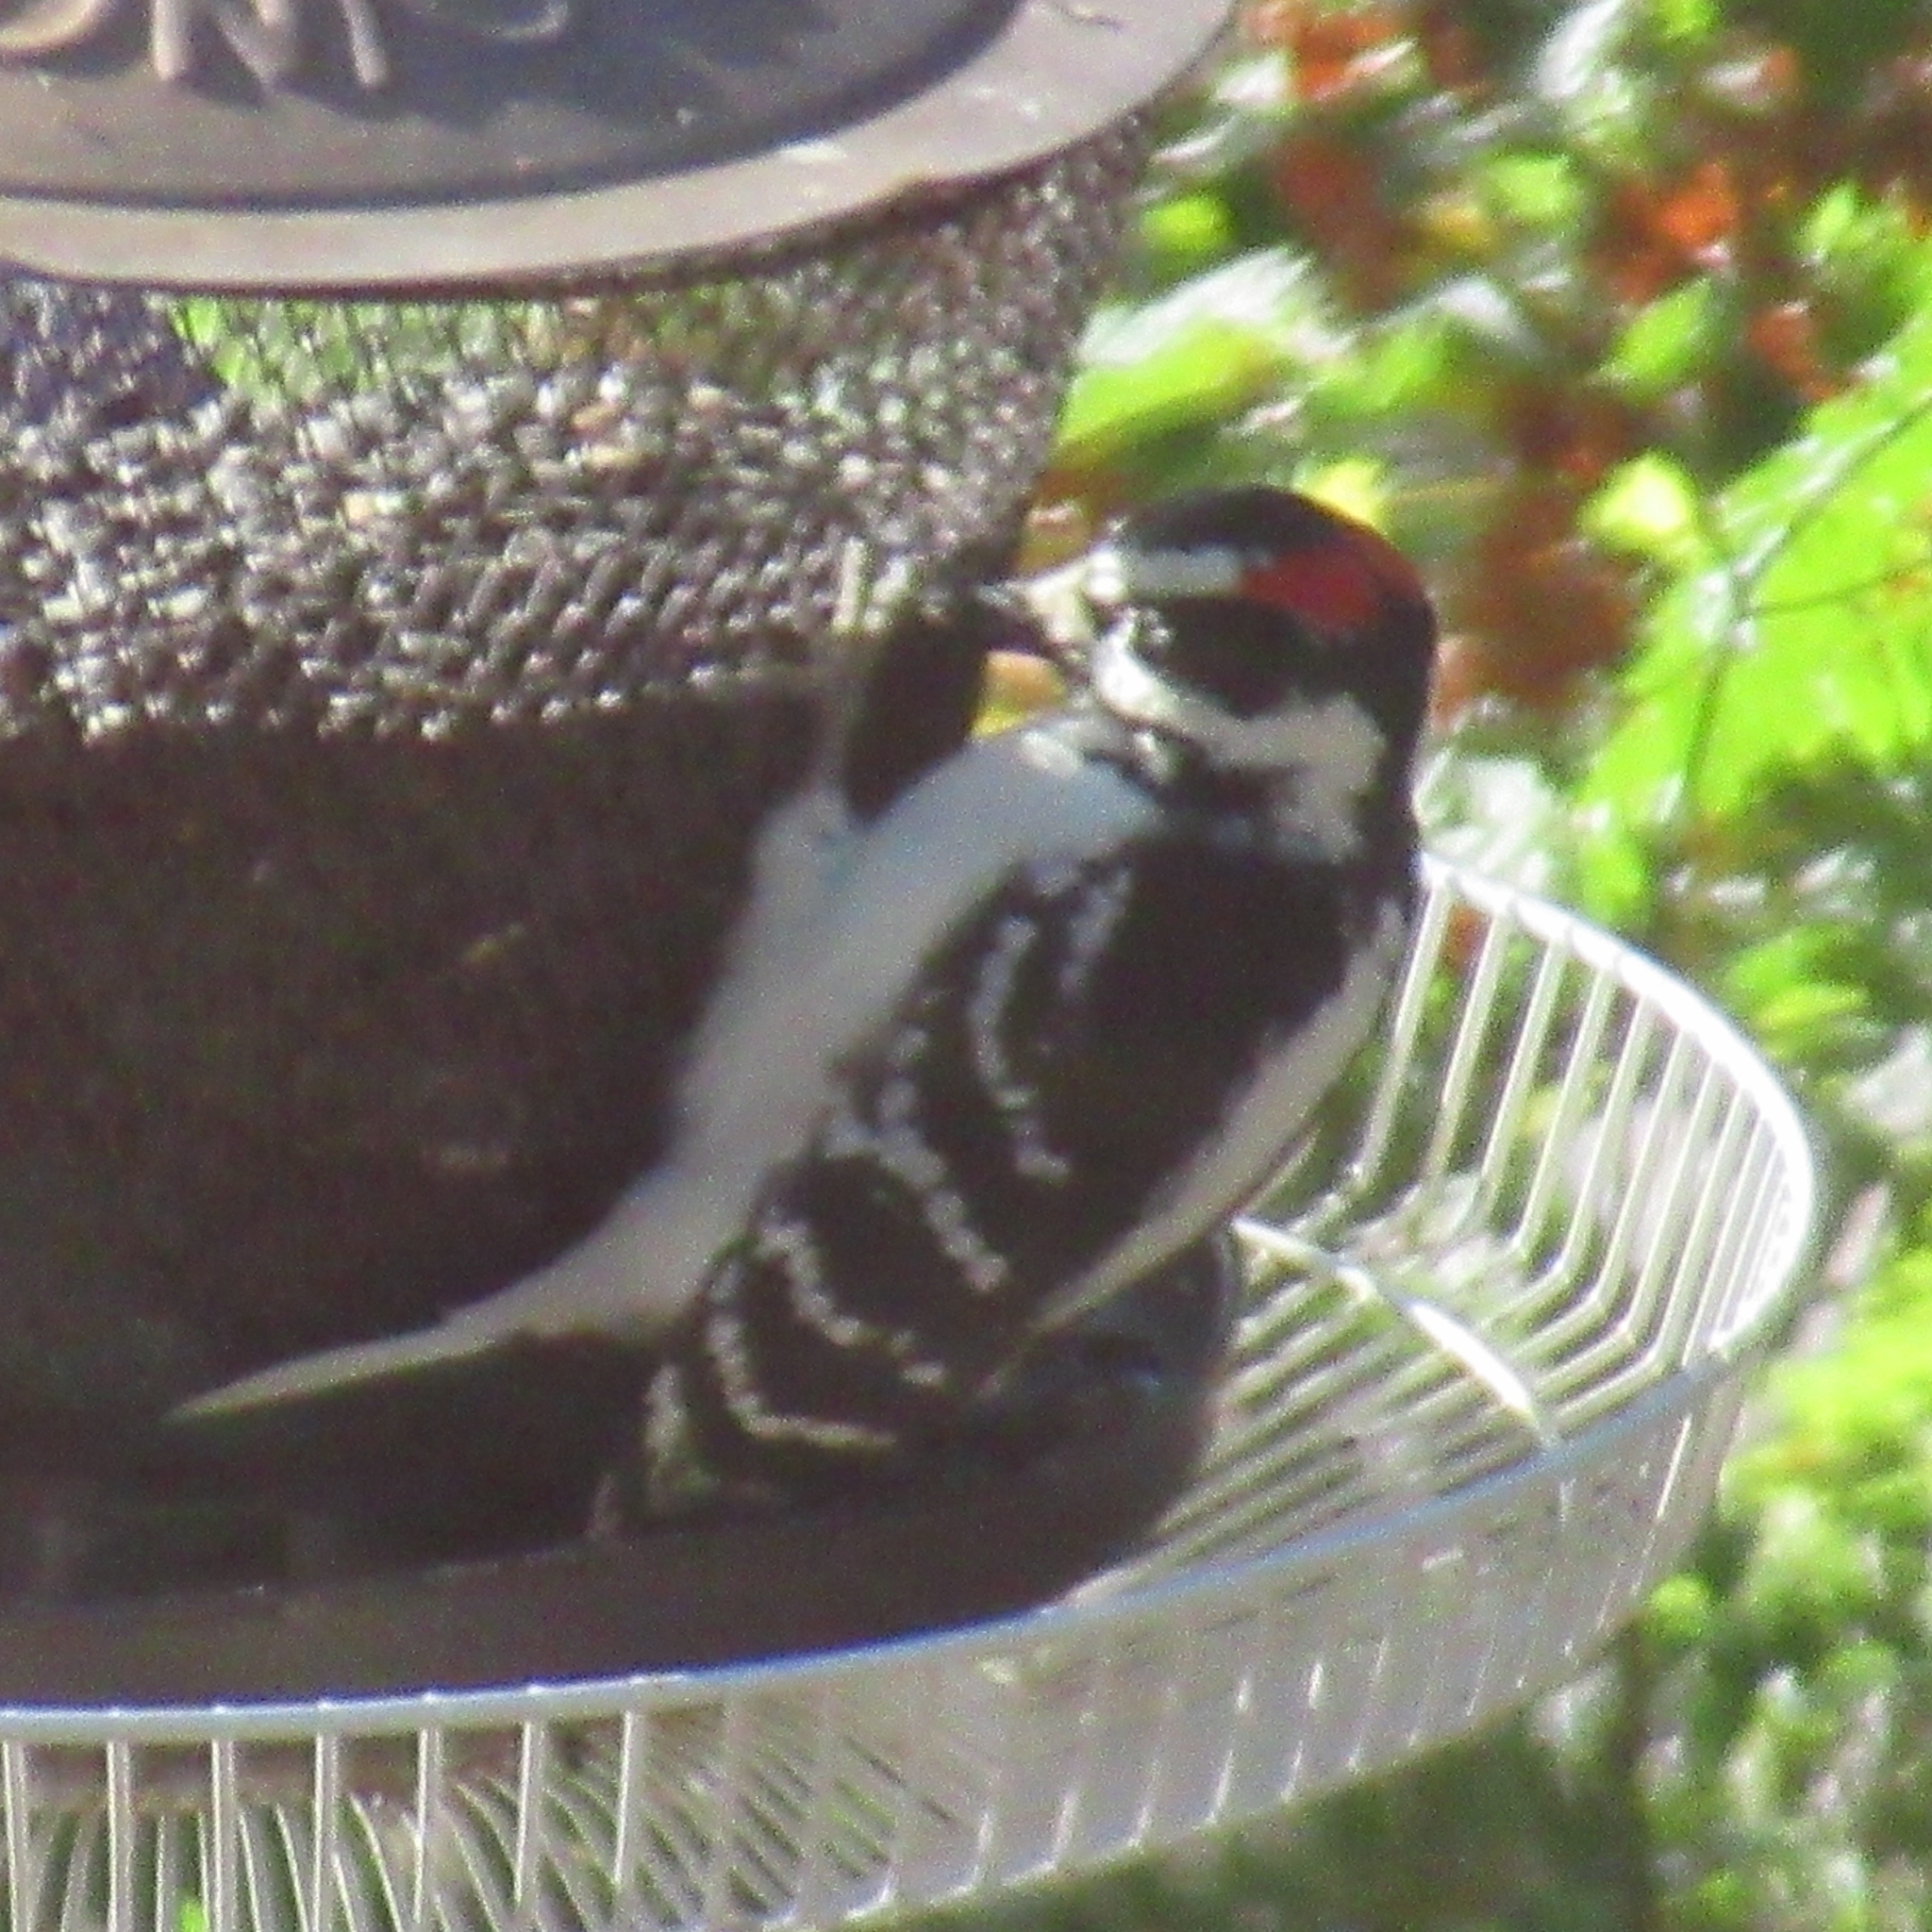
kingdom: Animalia
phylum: Chordata
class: Aves
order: Piciformes
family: Picidae
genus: Leuconotopicus
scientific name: Leuconotopicus villosus
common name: Hairy woodpecker
